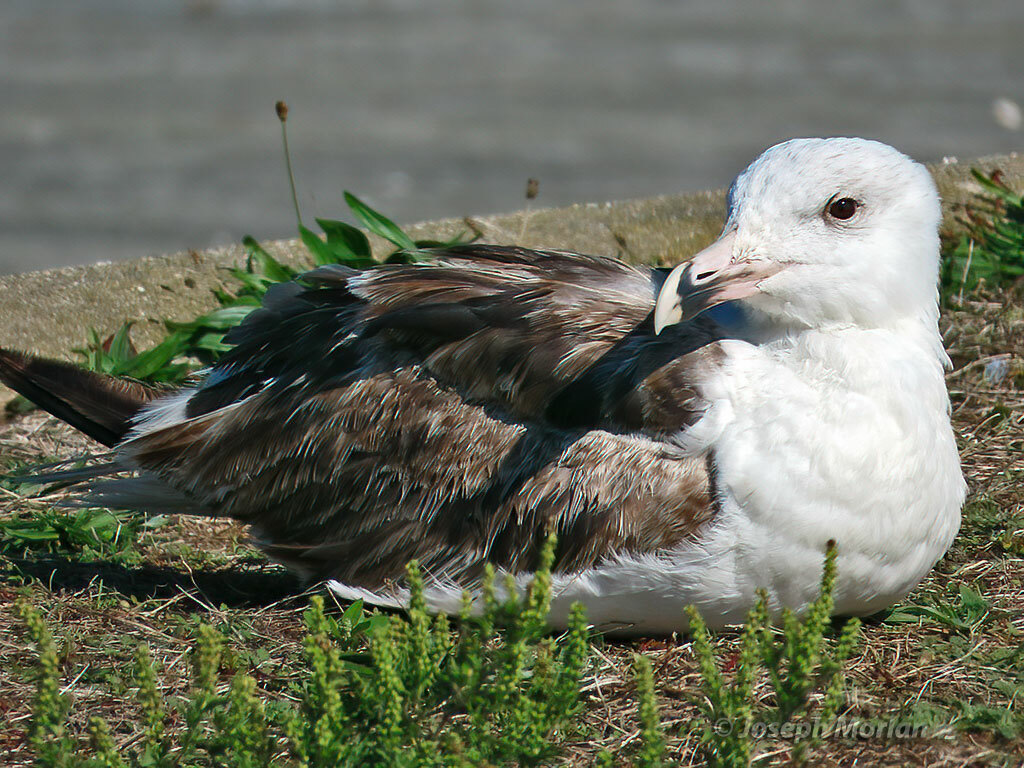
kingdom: Animalia
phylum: Chordata
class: Aves
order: Charadriiformes
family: Laridae
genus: Larus
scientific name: Larus marinus
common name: Great black-backed gull
